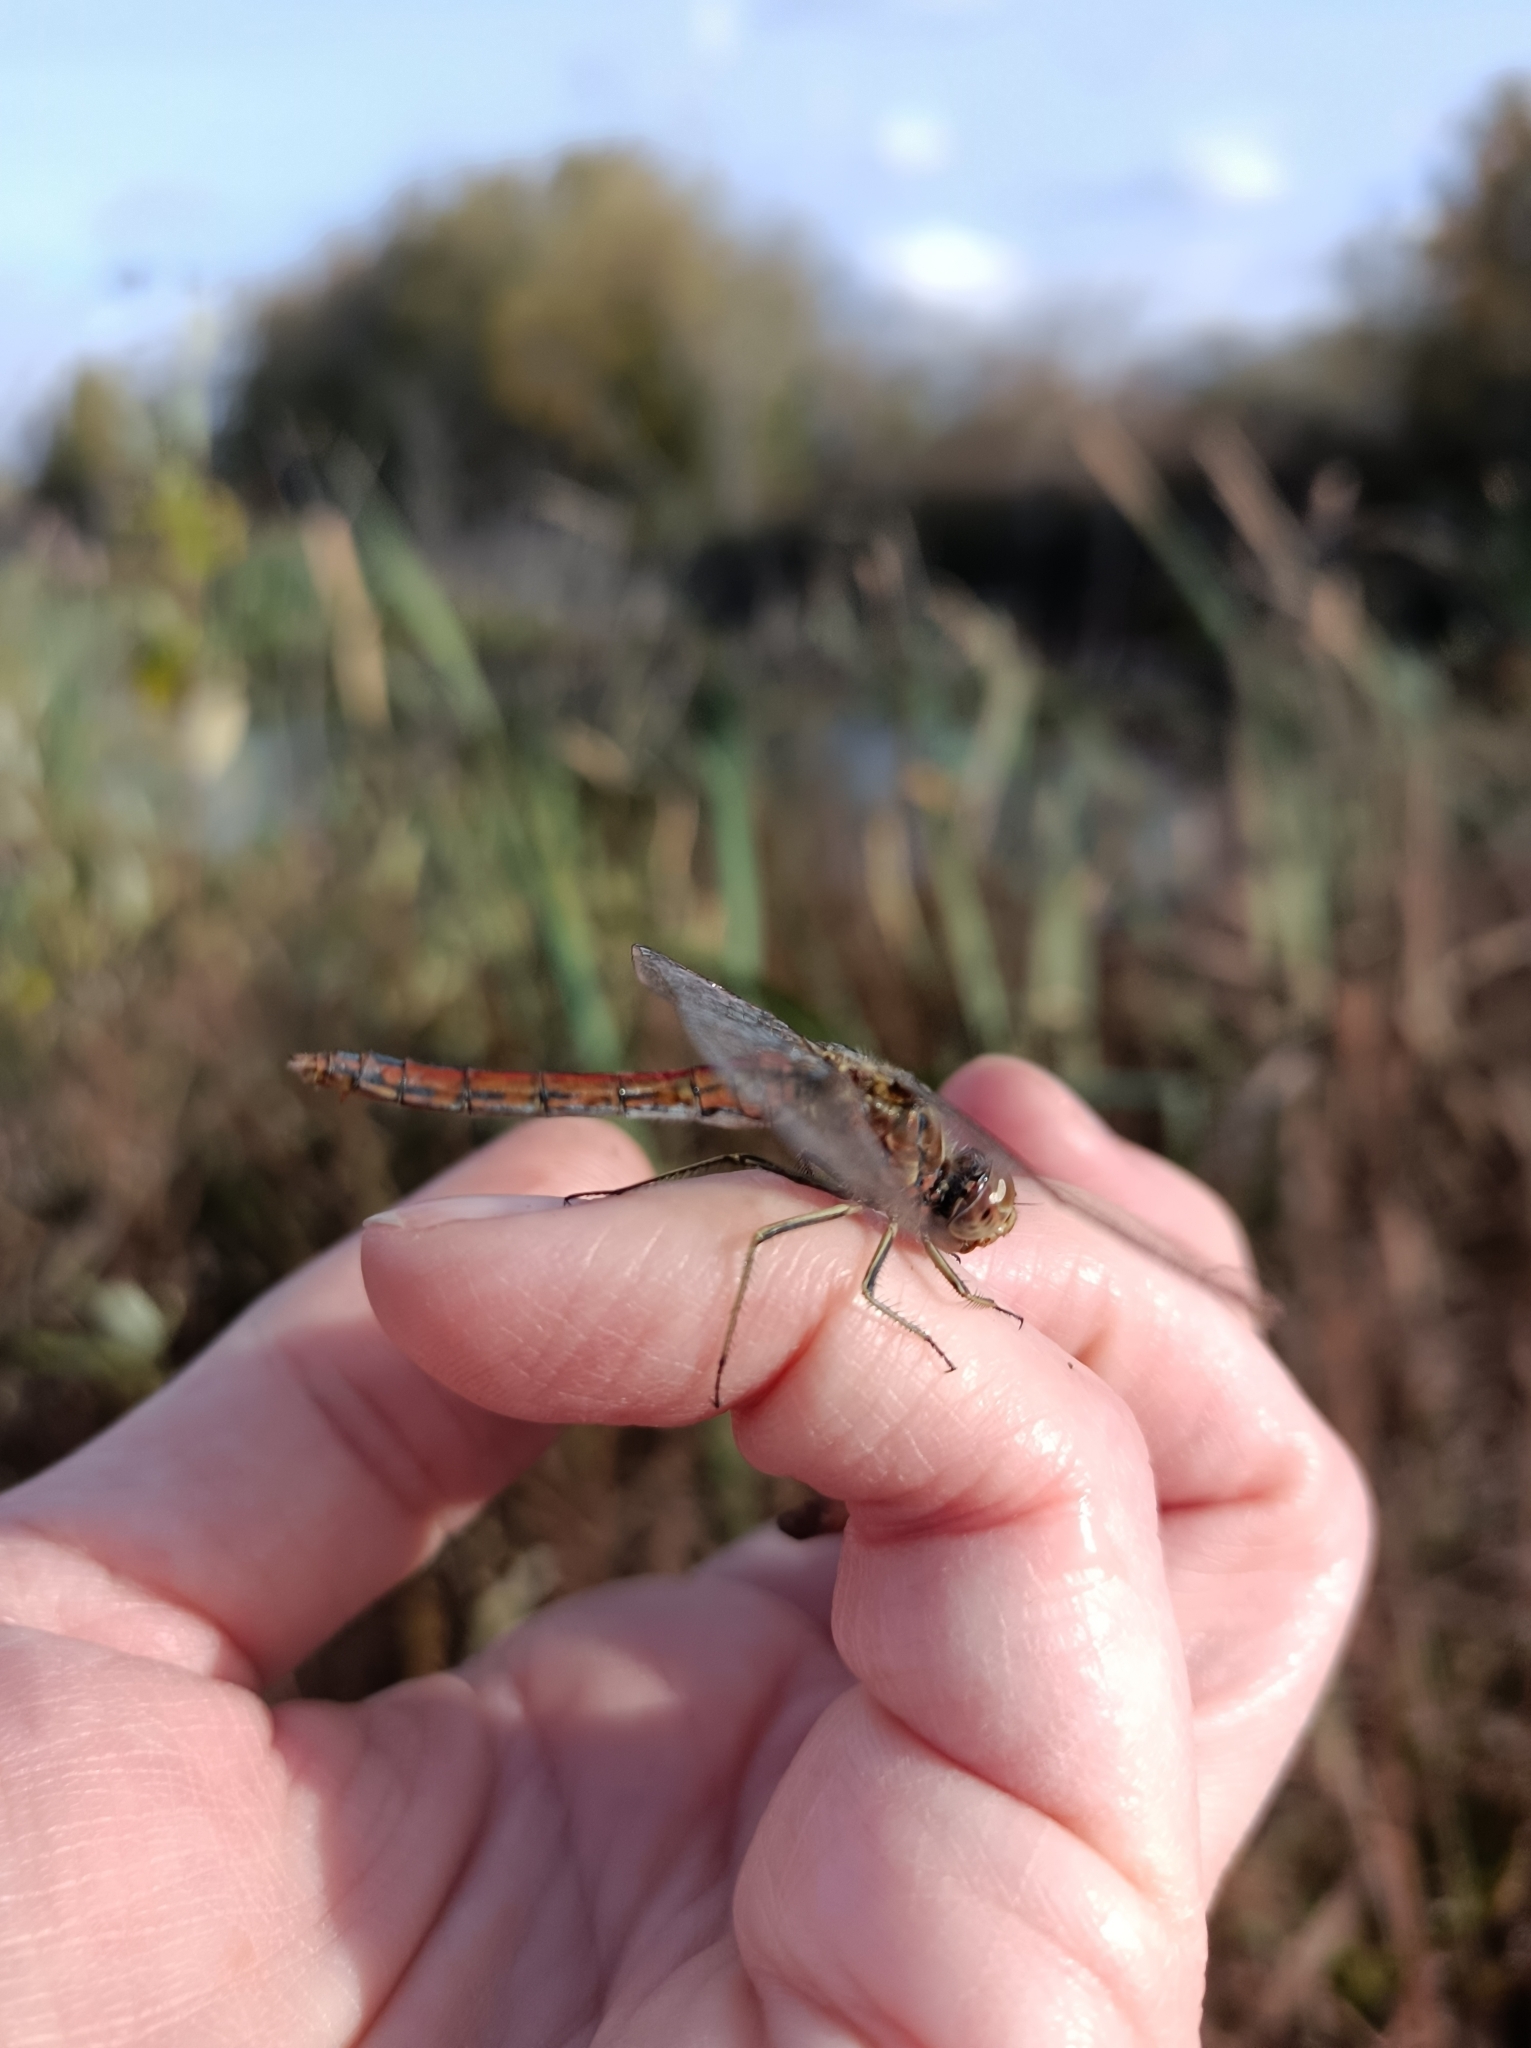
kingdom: Animalia
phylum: Arthropoda
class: Insecta
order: Odonata
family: Libellulidae
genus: Sympetrum
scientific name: Sympetrum vulgatum
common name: Vagrant darter
